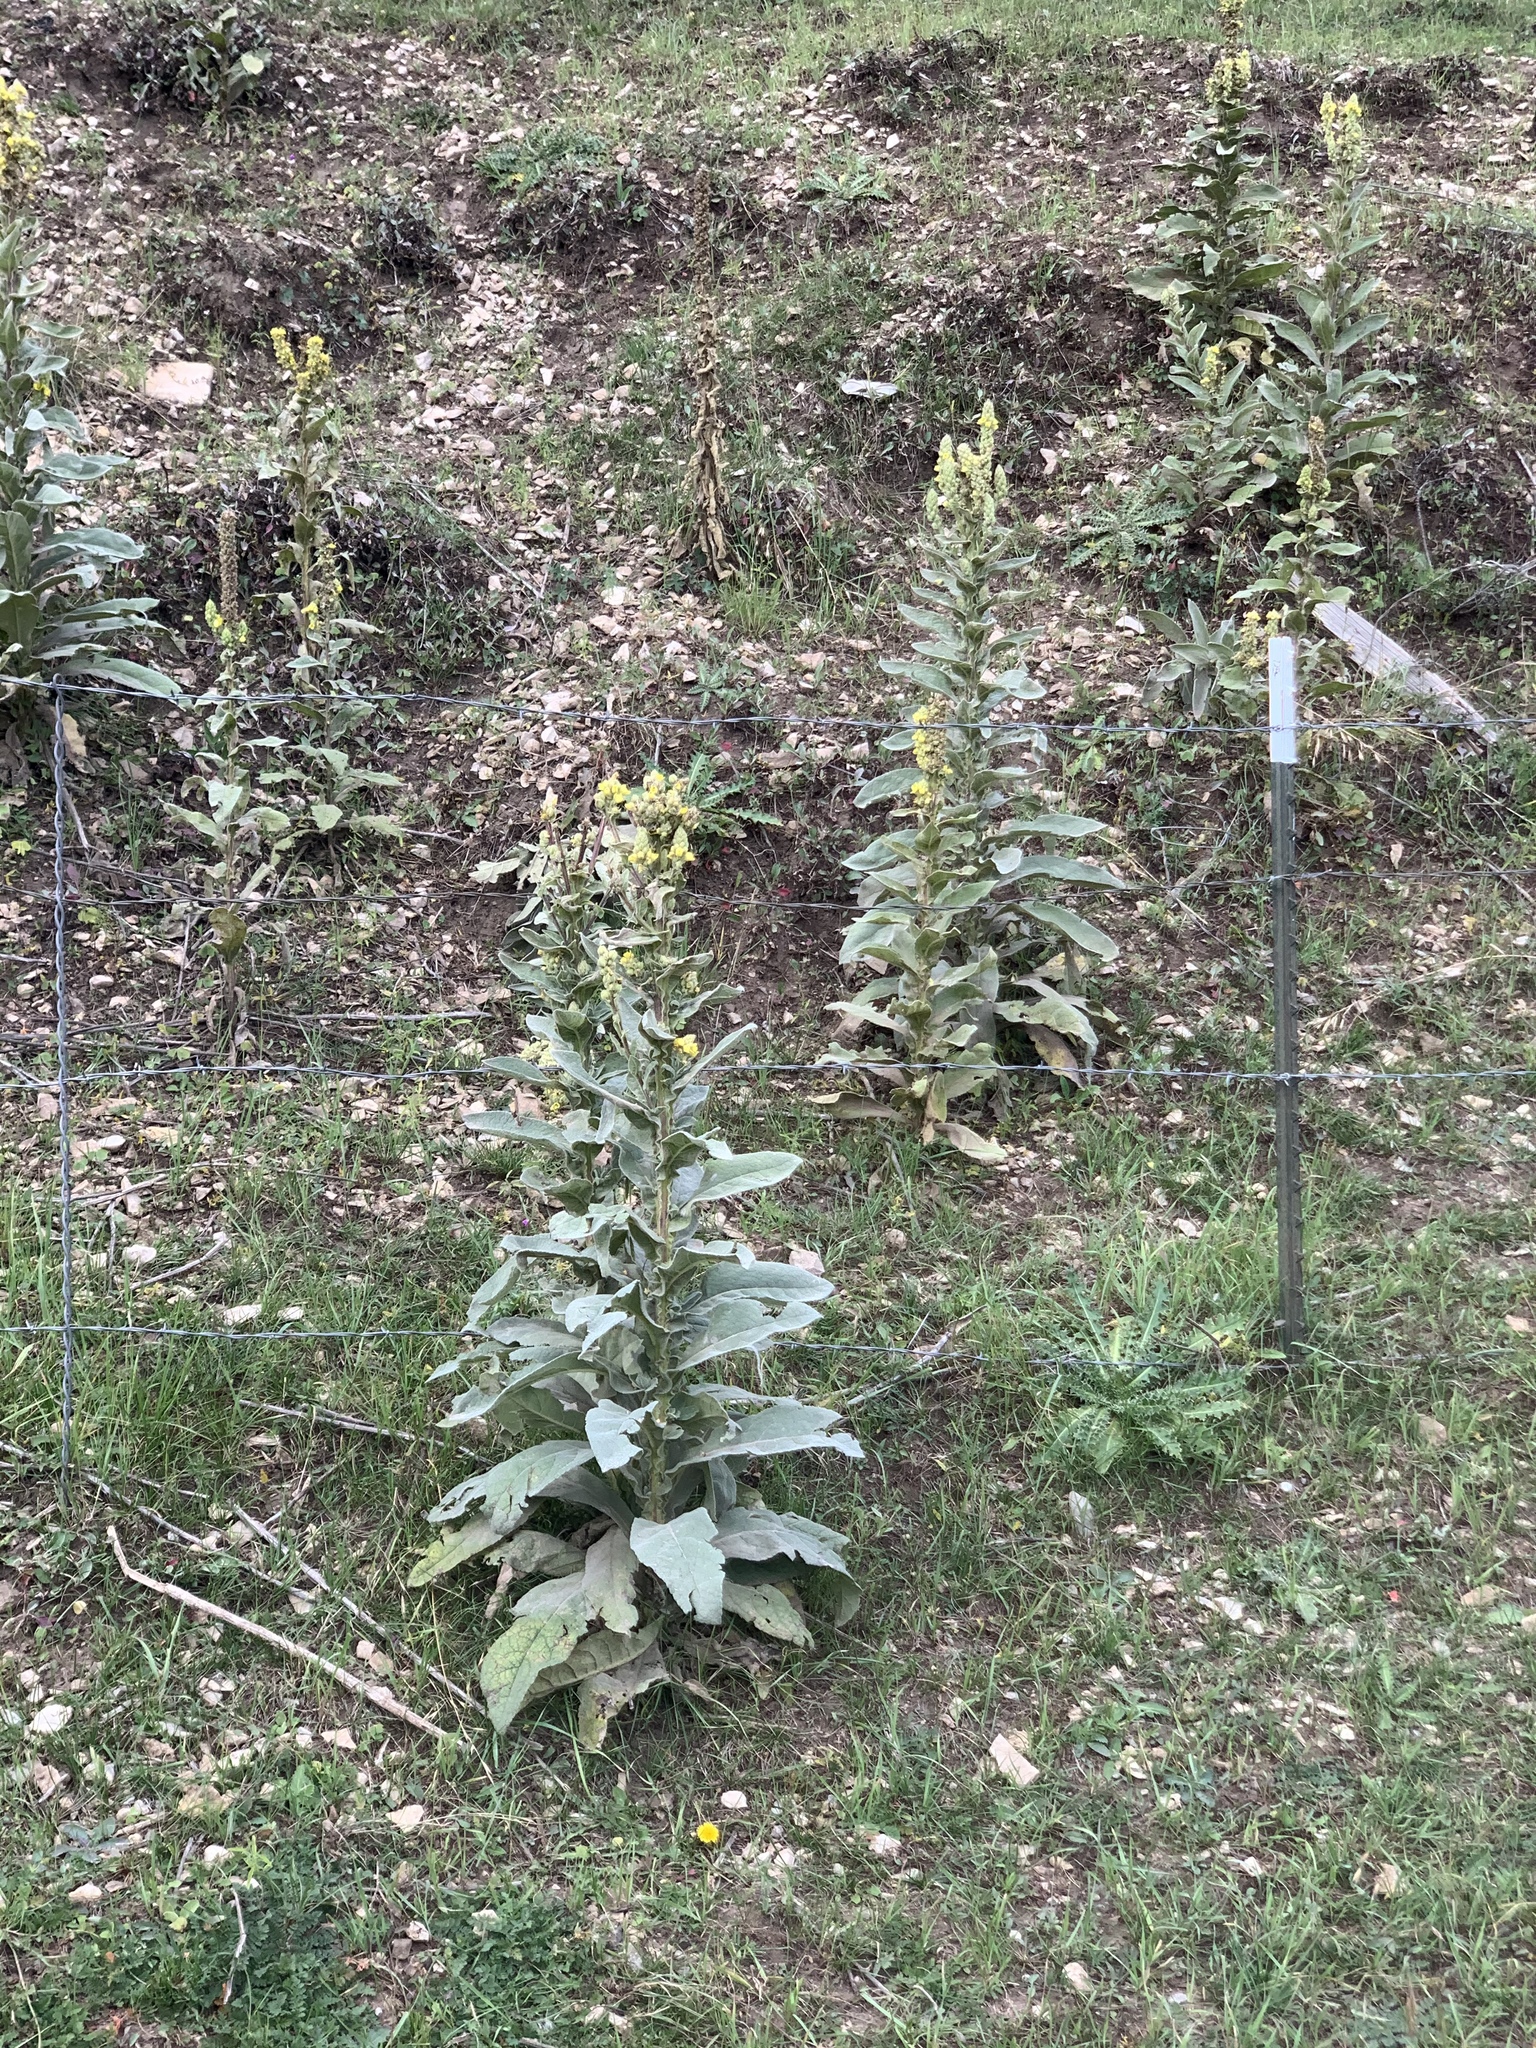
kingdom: Plantae
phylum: Tracheophyta
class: Magnoliopsida
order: Lamiales
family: Scrophulariaceae
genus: Verbascum
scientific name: Verbascum thapsus
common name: Common mullein
